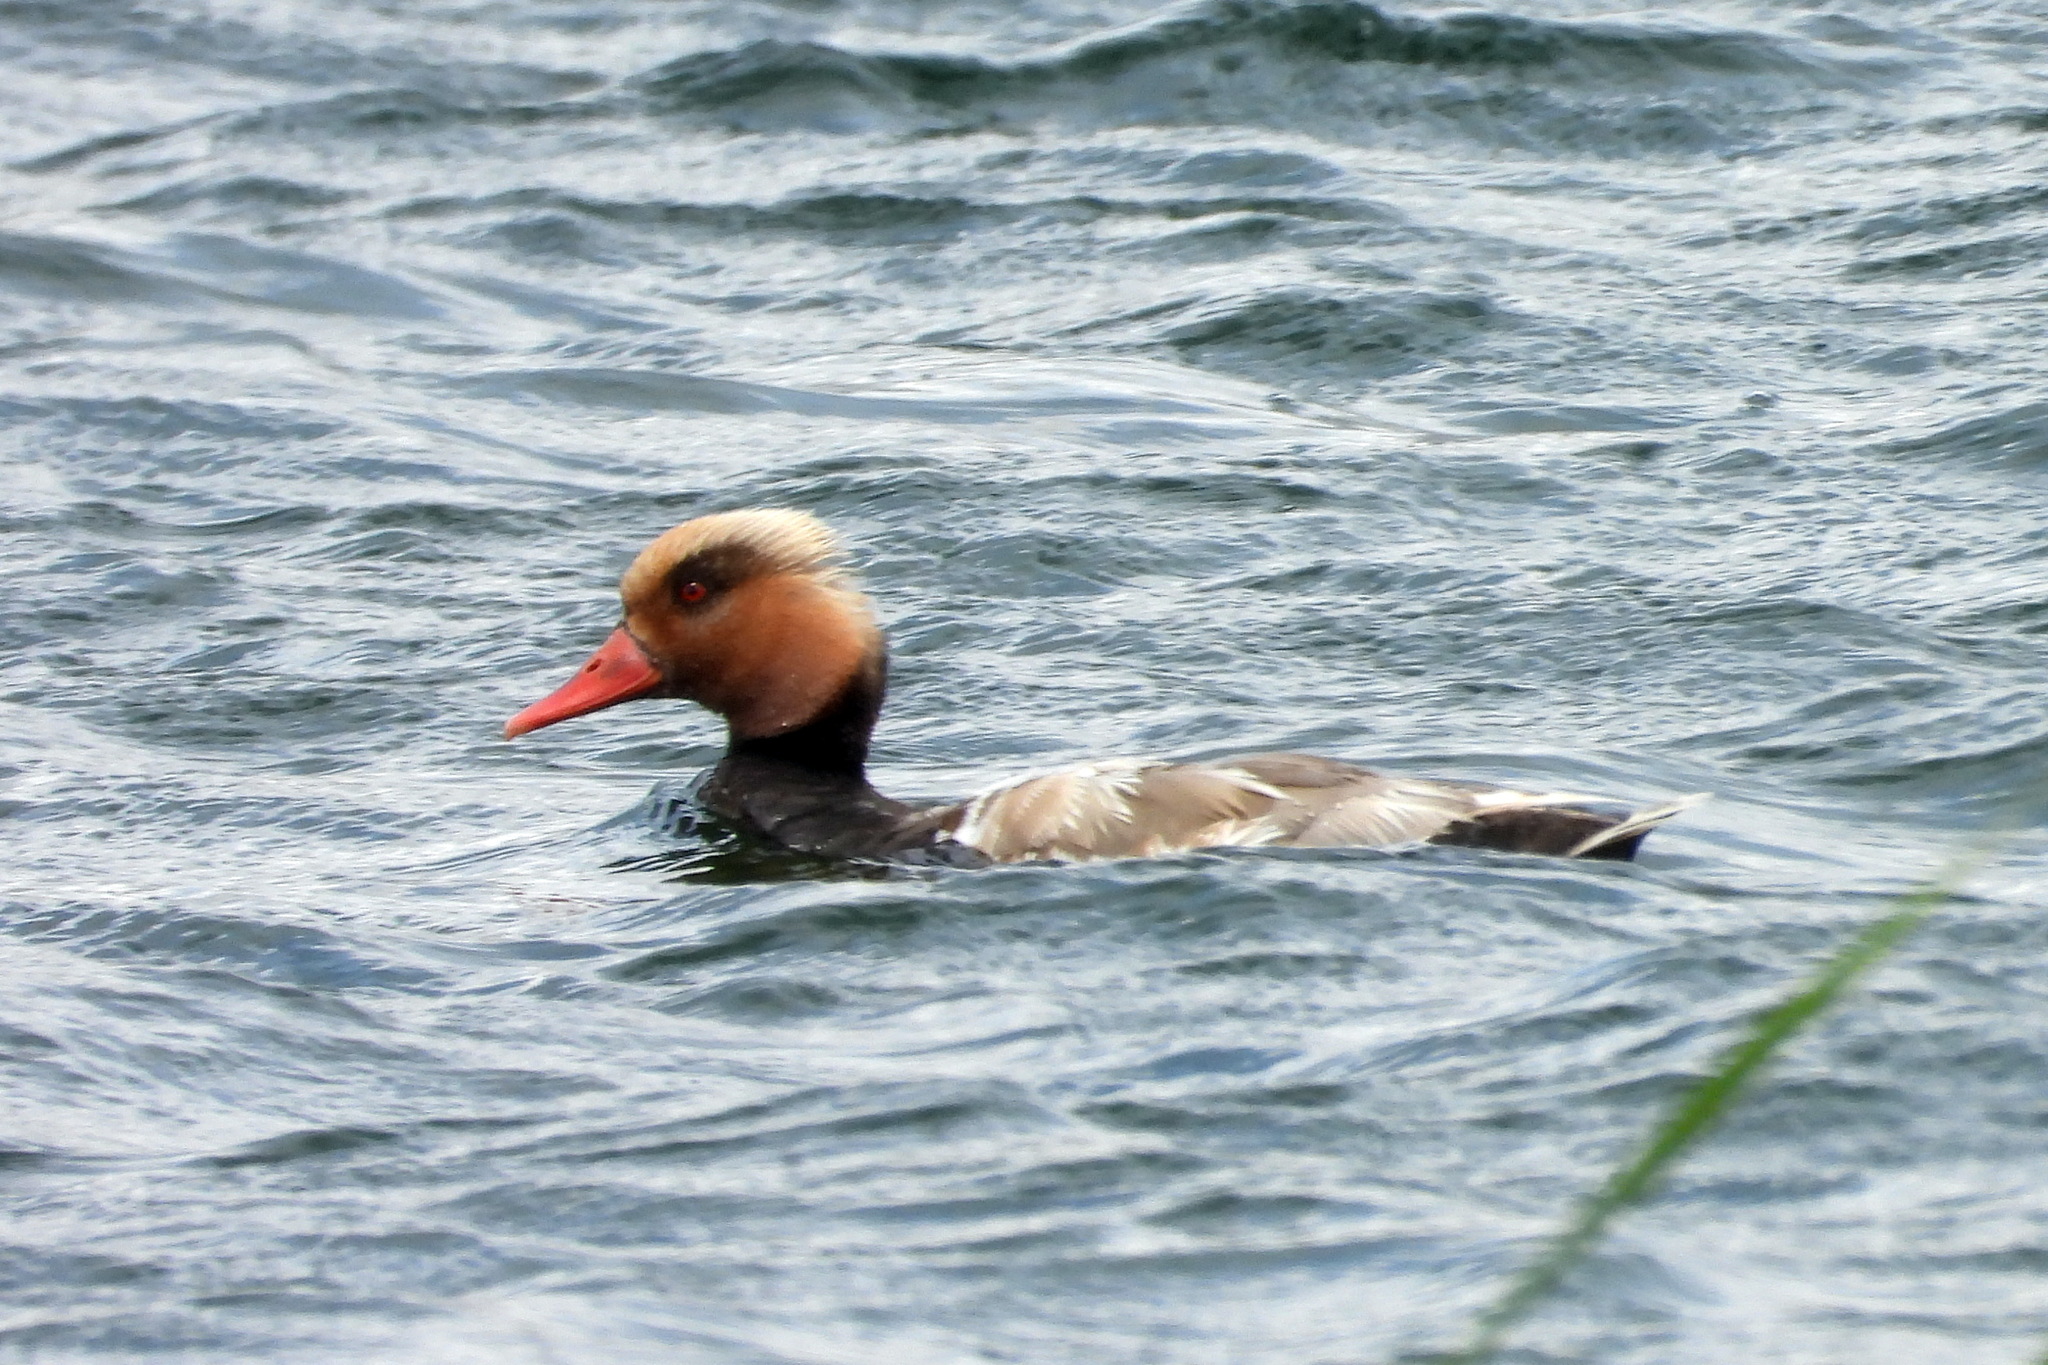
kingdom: Animalia
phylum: Chordata
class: Aves
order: Anseriformes
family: Anatidae
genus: Netta
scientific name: Netta rufina
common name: Red-crested pochard
